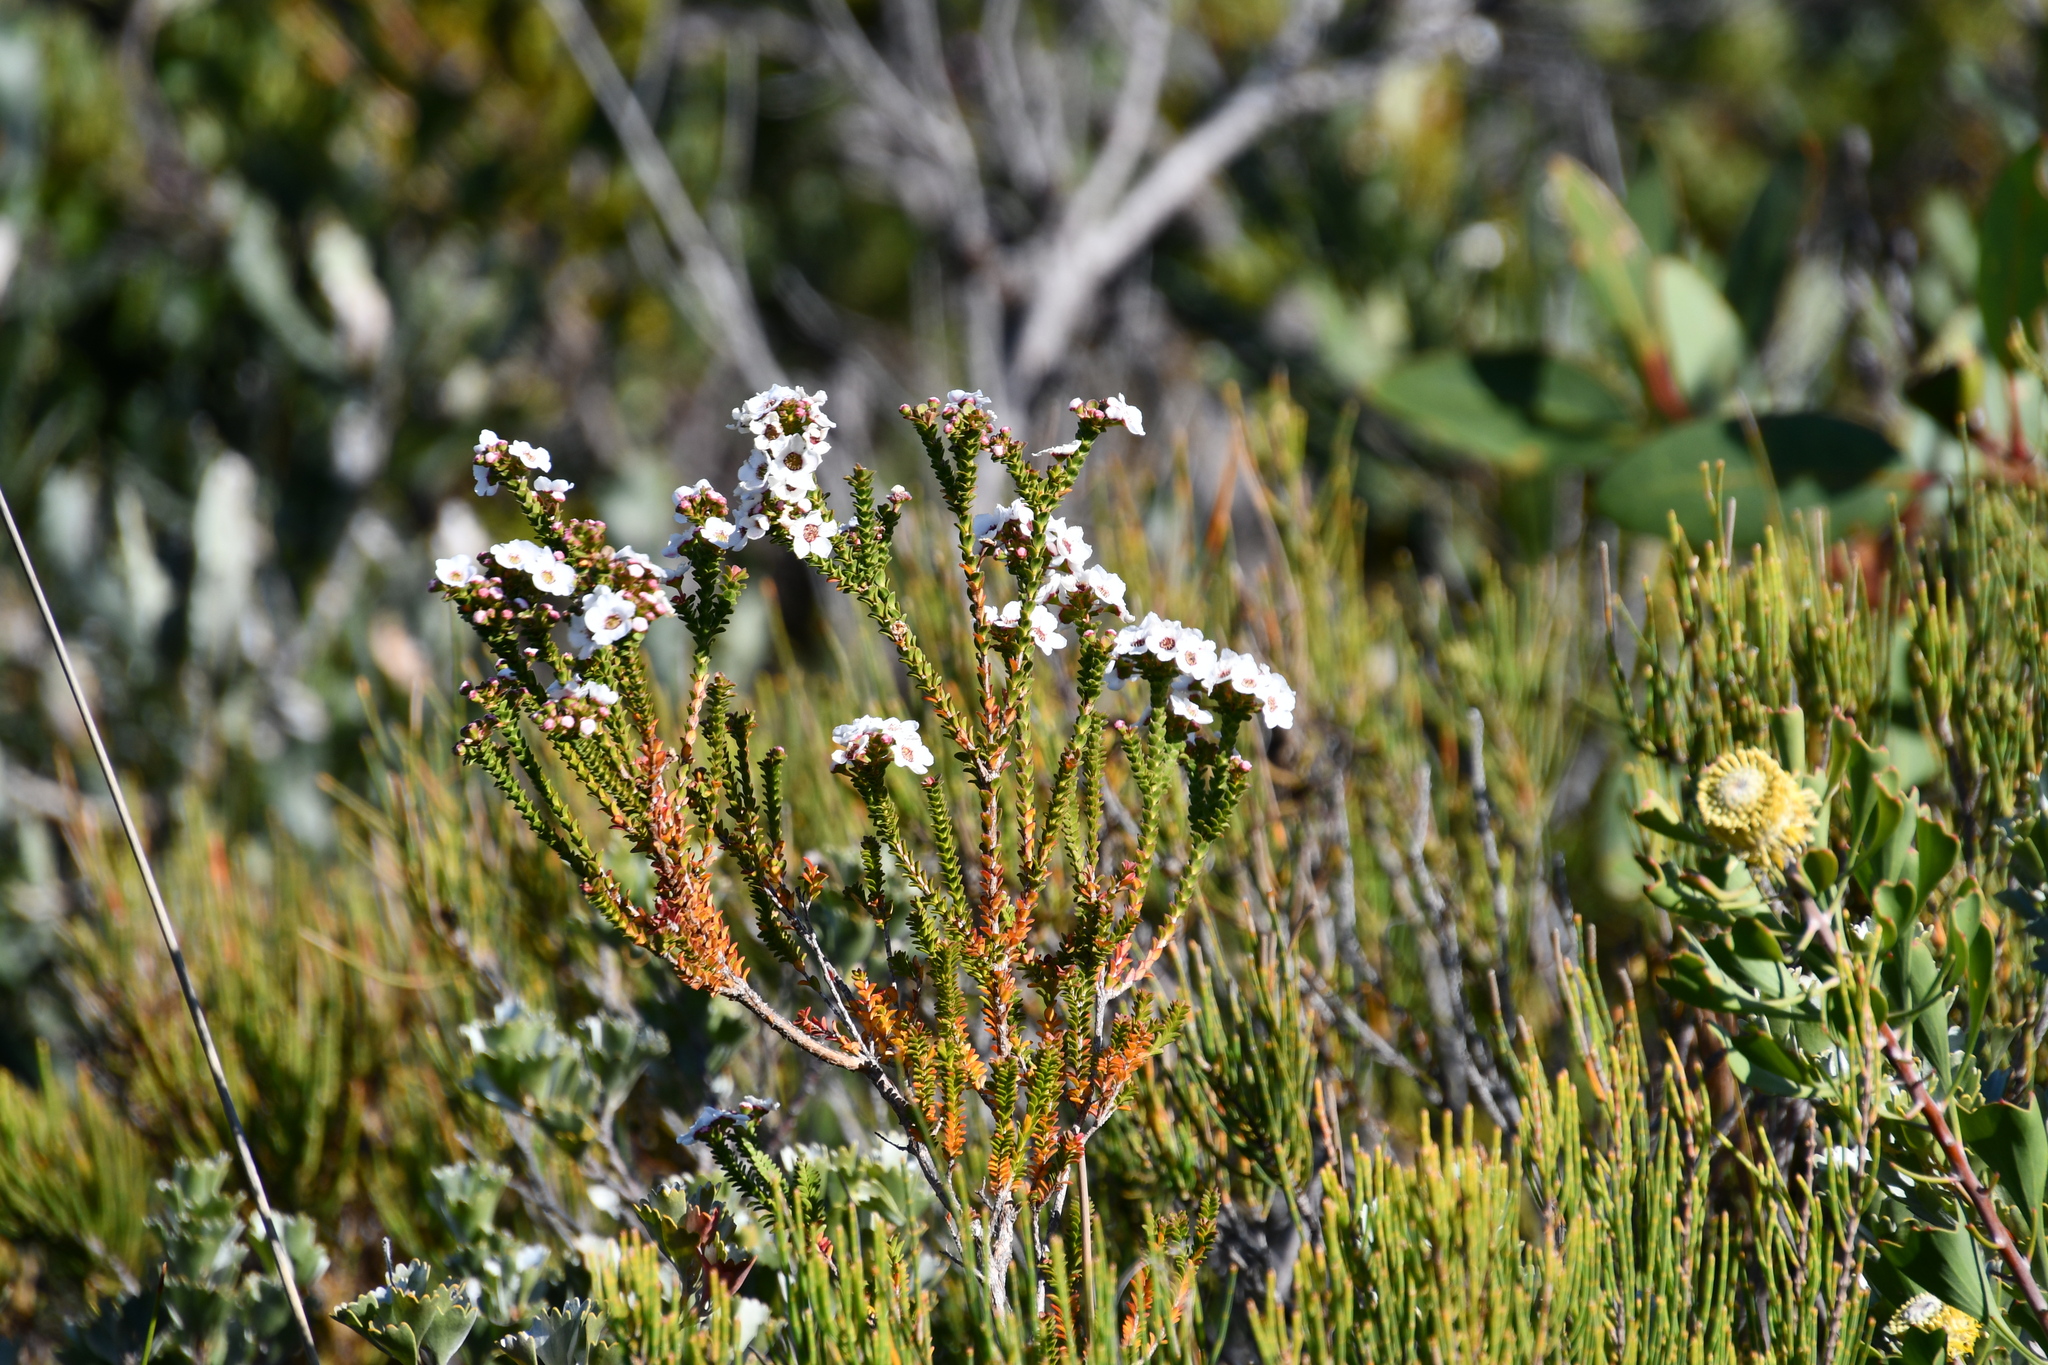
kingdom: Plantae
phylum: Tracheophyta
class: Magnoliopsida
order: Myrtales
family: Myrtaceae
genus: Anticoryne
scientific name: Anticoryne ovalifolia
